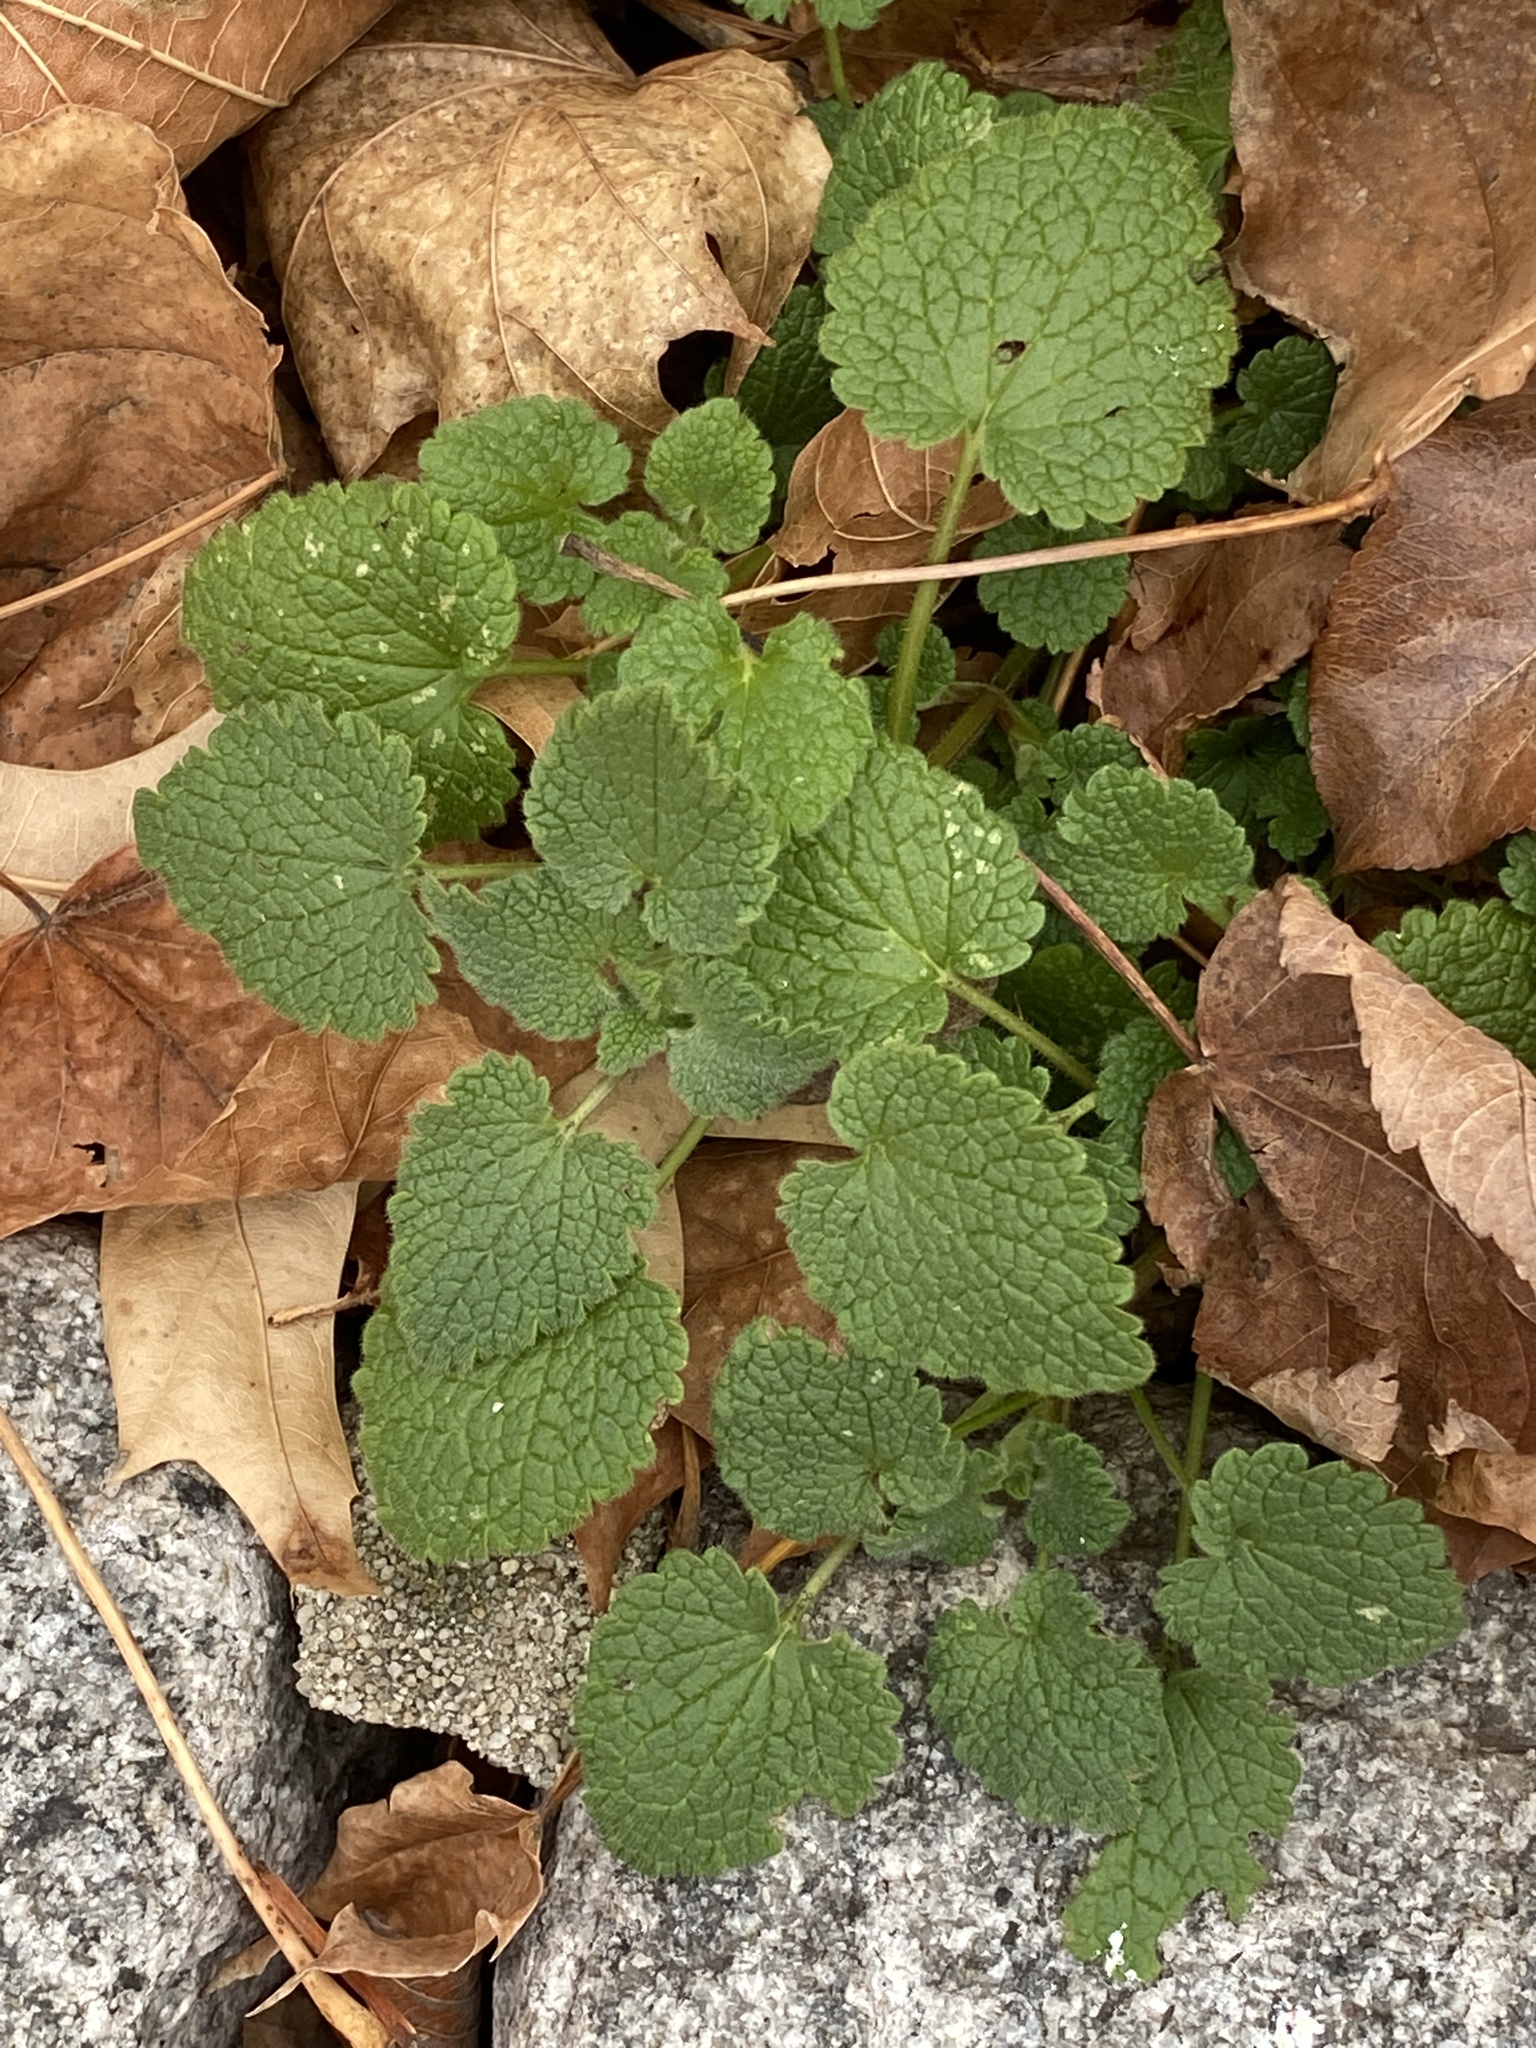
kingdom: Plantae
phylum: Tracheophyta
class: Magnoliopsida
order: Lamiales
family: Lamiaceae
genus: Lamium
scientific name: Lamium purpureum
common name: Red dead-nettle
